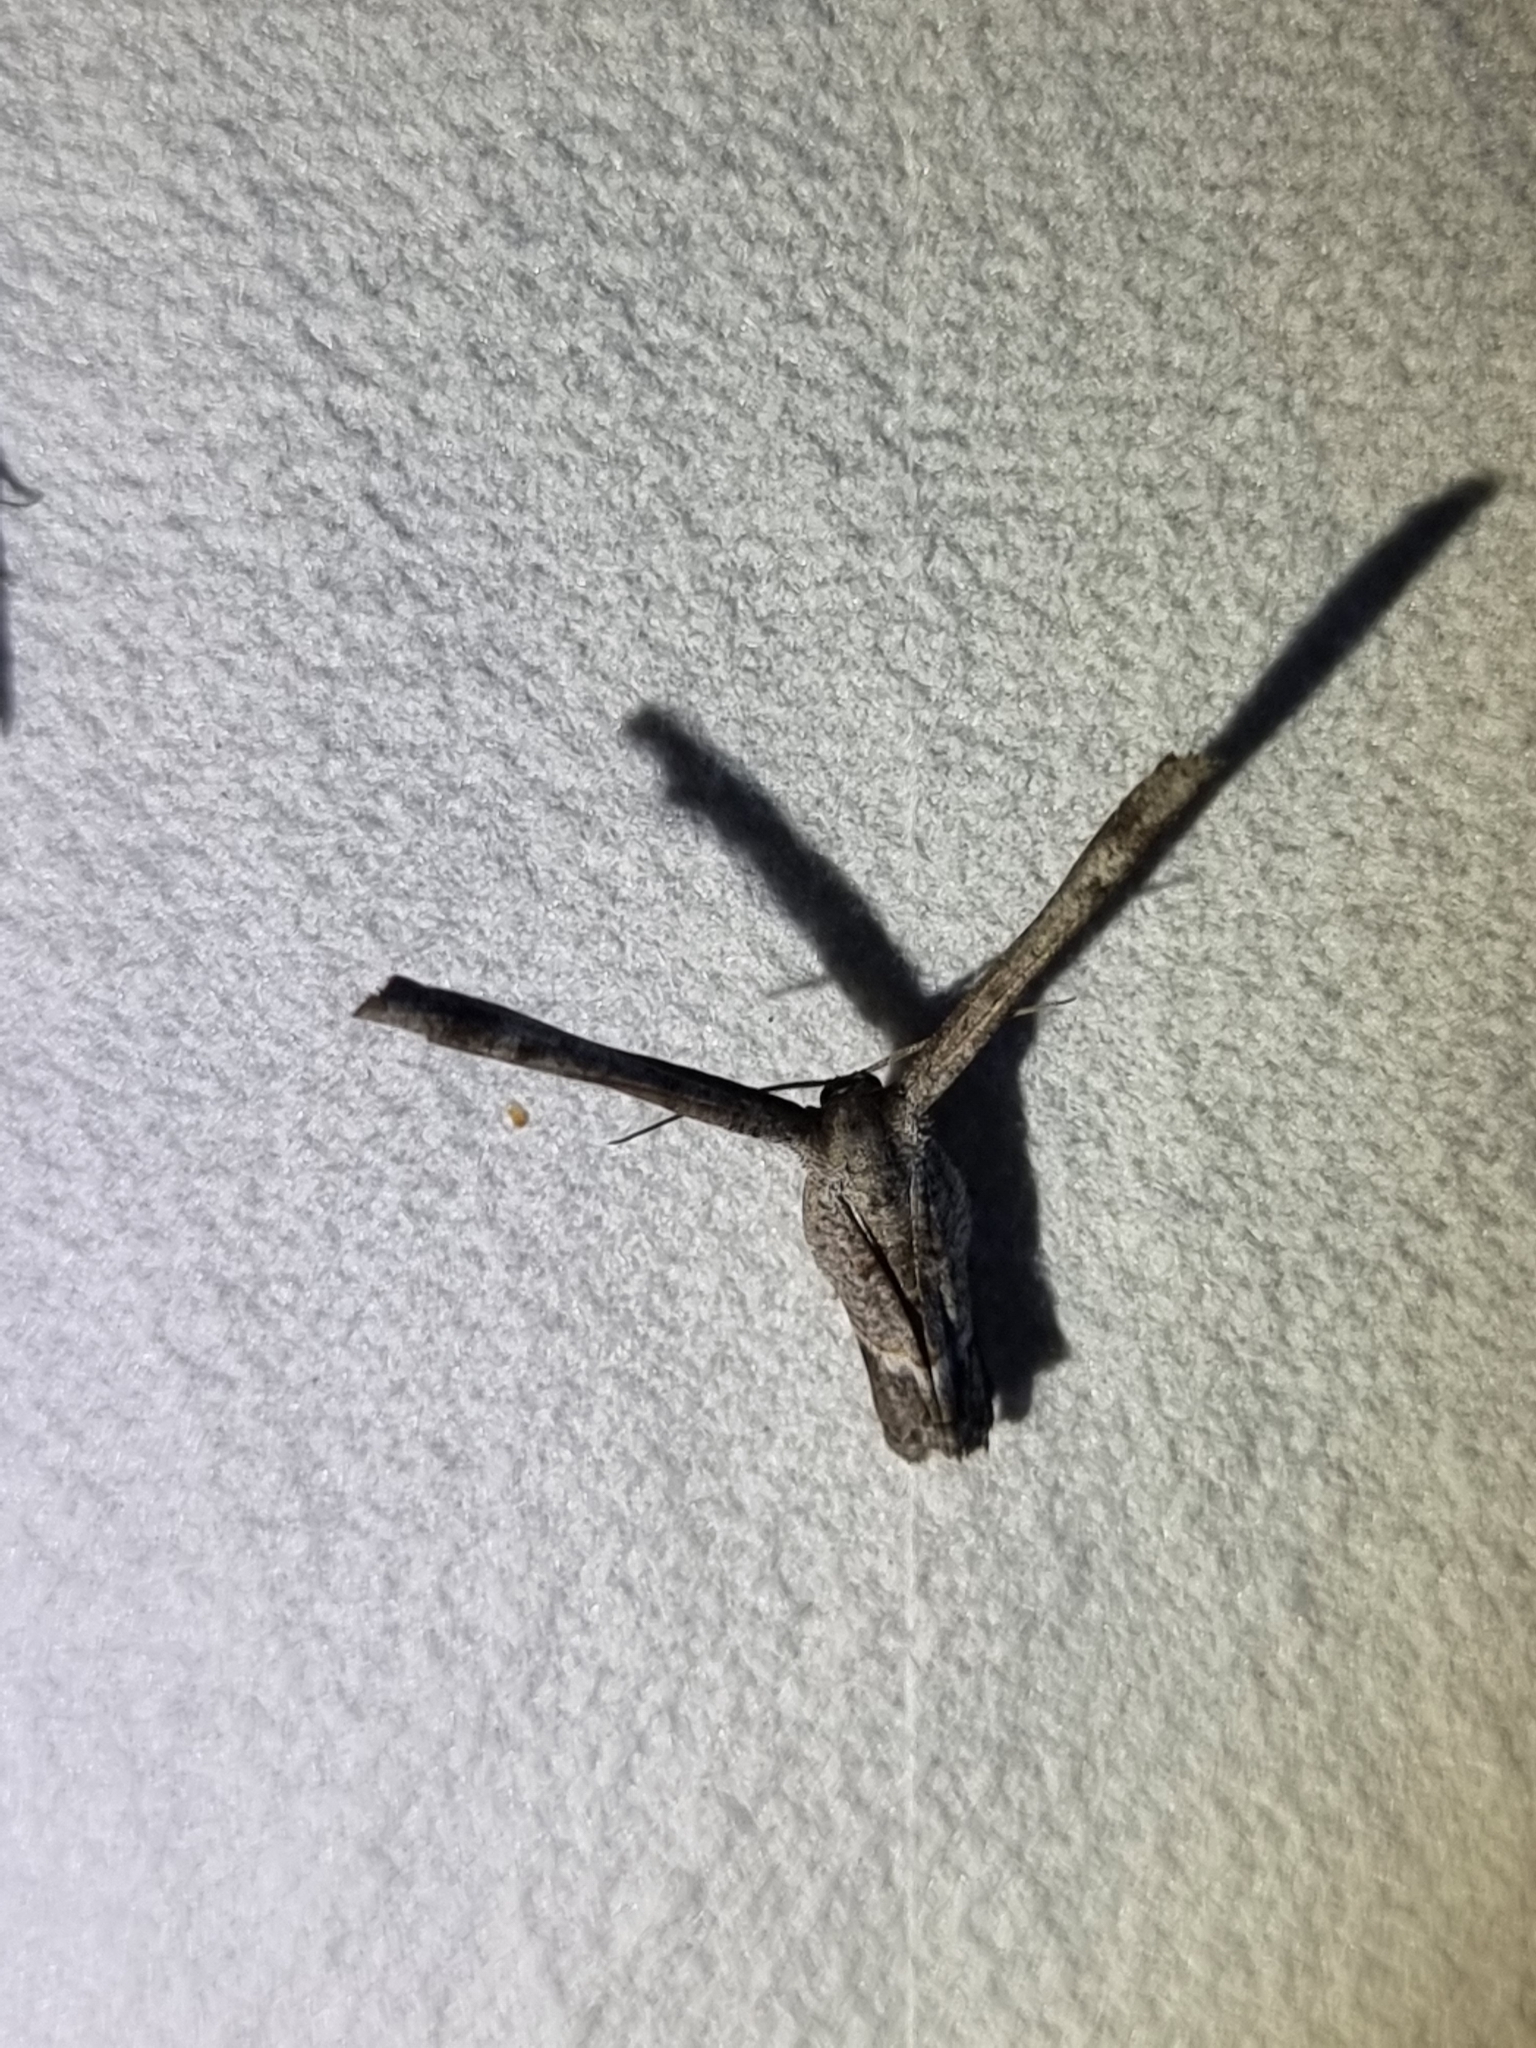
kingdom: Animalia
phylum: Arthropoda
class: Insecta
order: Lepidoptera
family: Uraniidae
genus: Phazaca
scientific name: Phazaca interrupta
